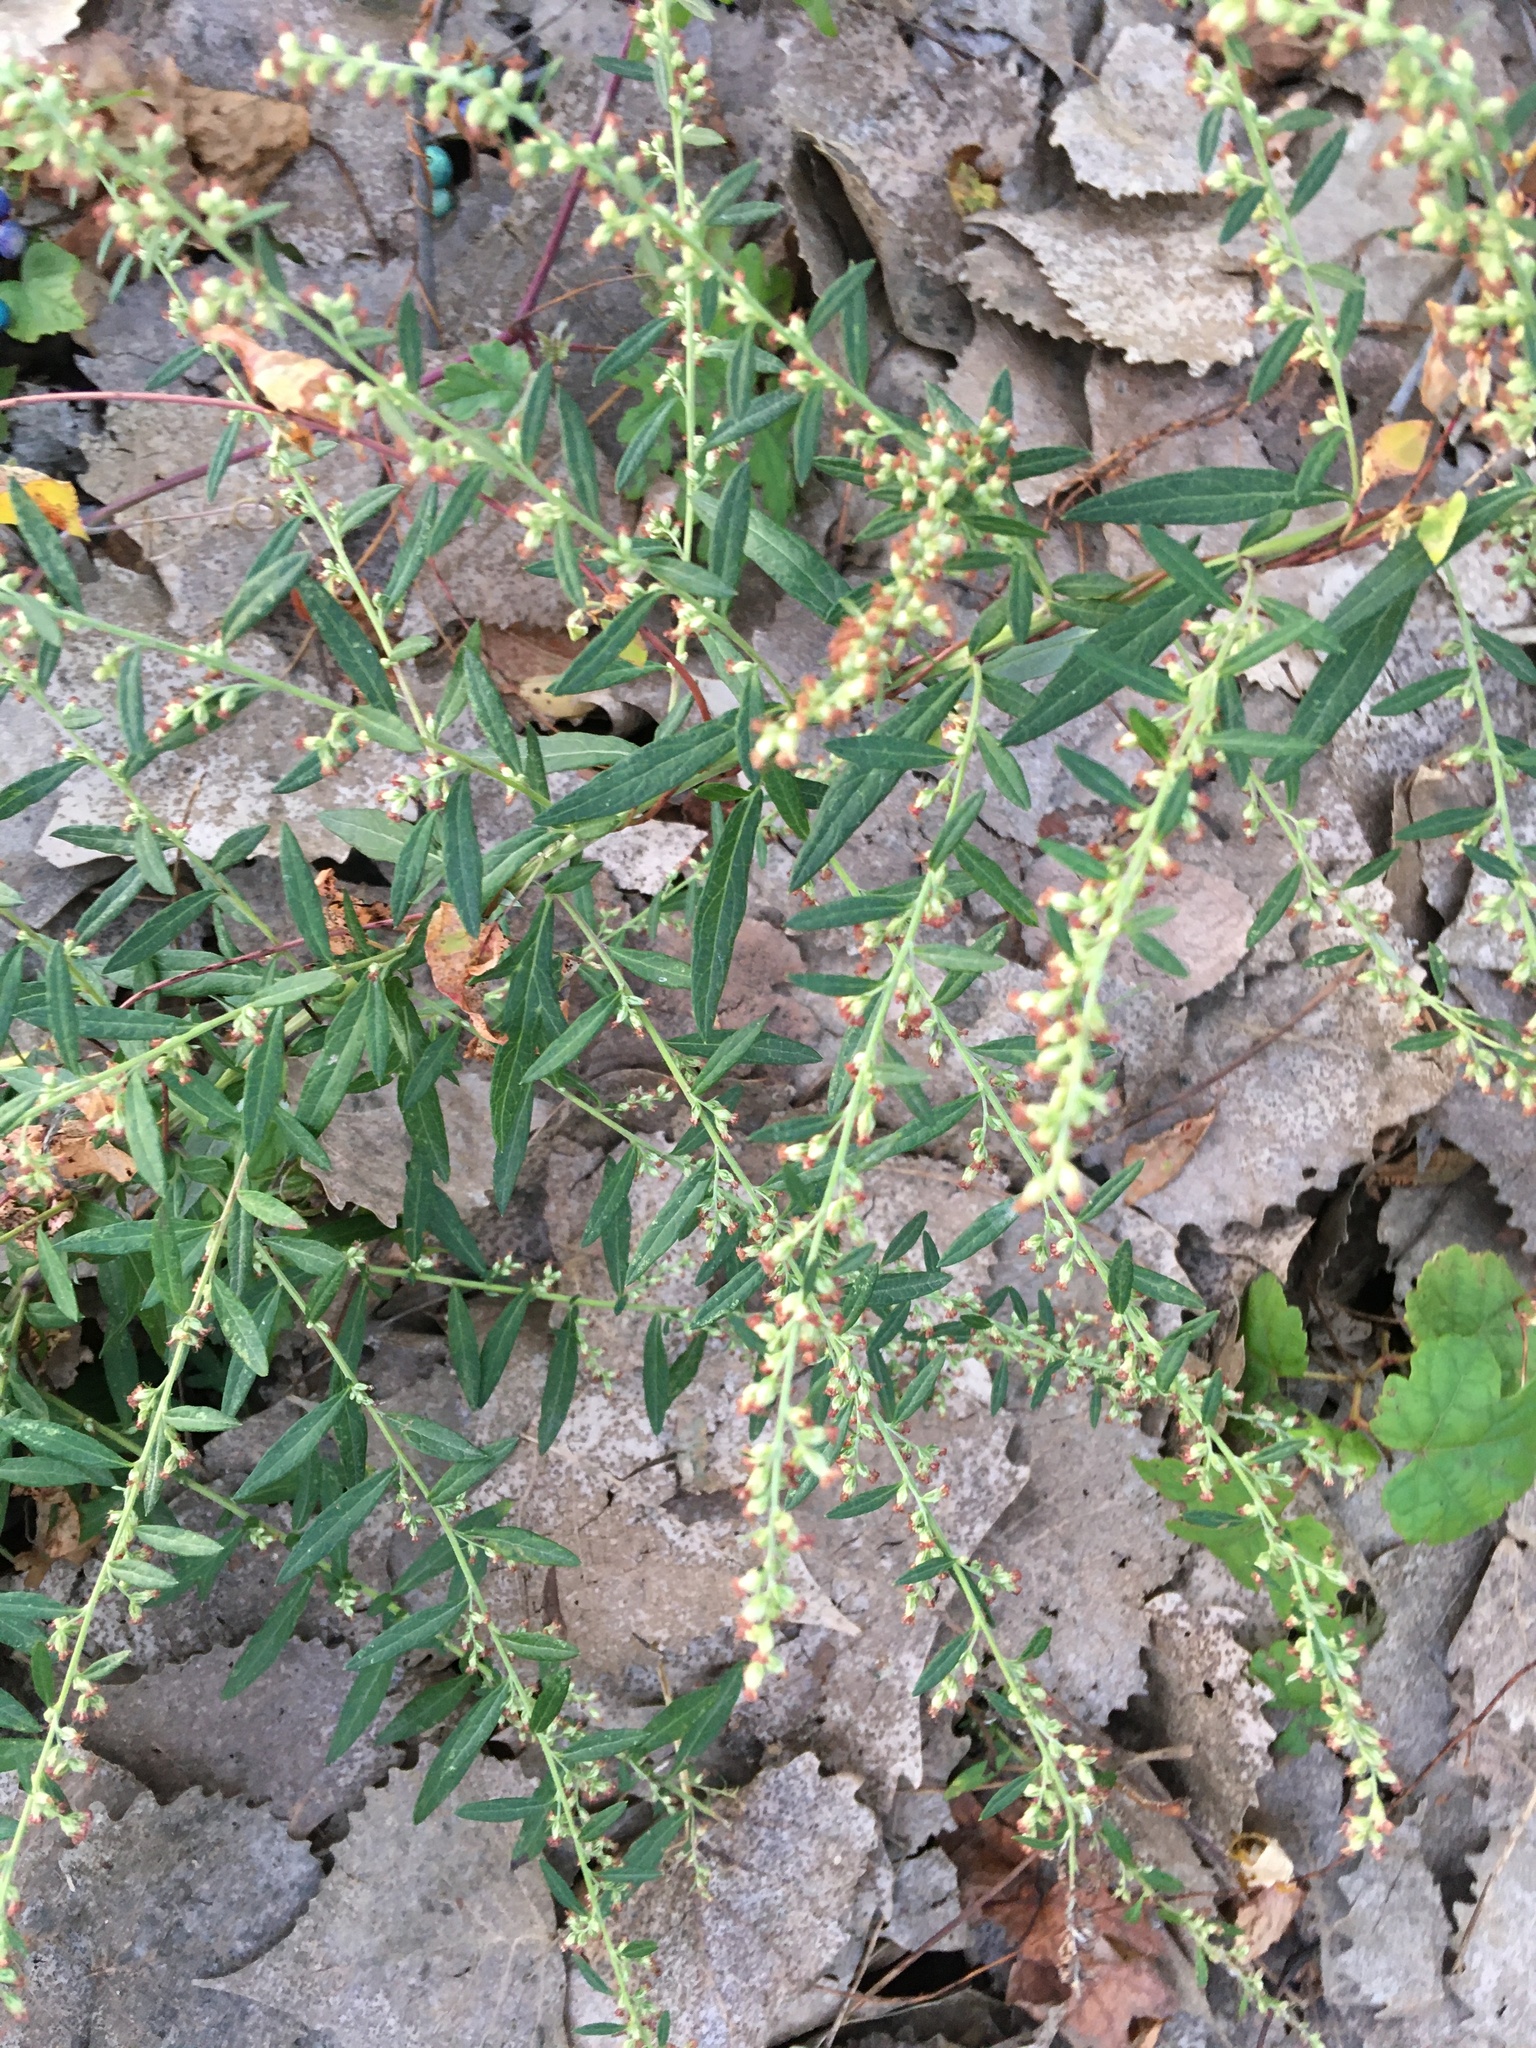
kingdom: Plantae
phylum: Tracheophyta
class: Magnoliopsida
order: Asterales
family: Asteraceae
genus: Artemisia
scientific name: Artemisia vulgaris
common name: Mugwort
